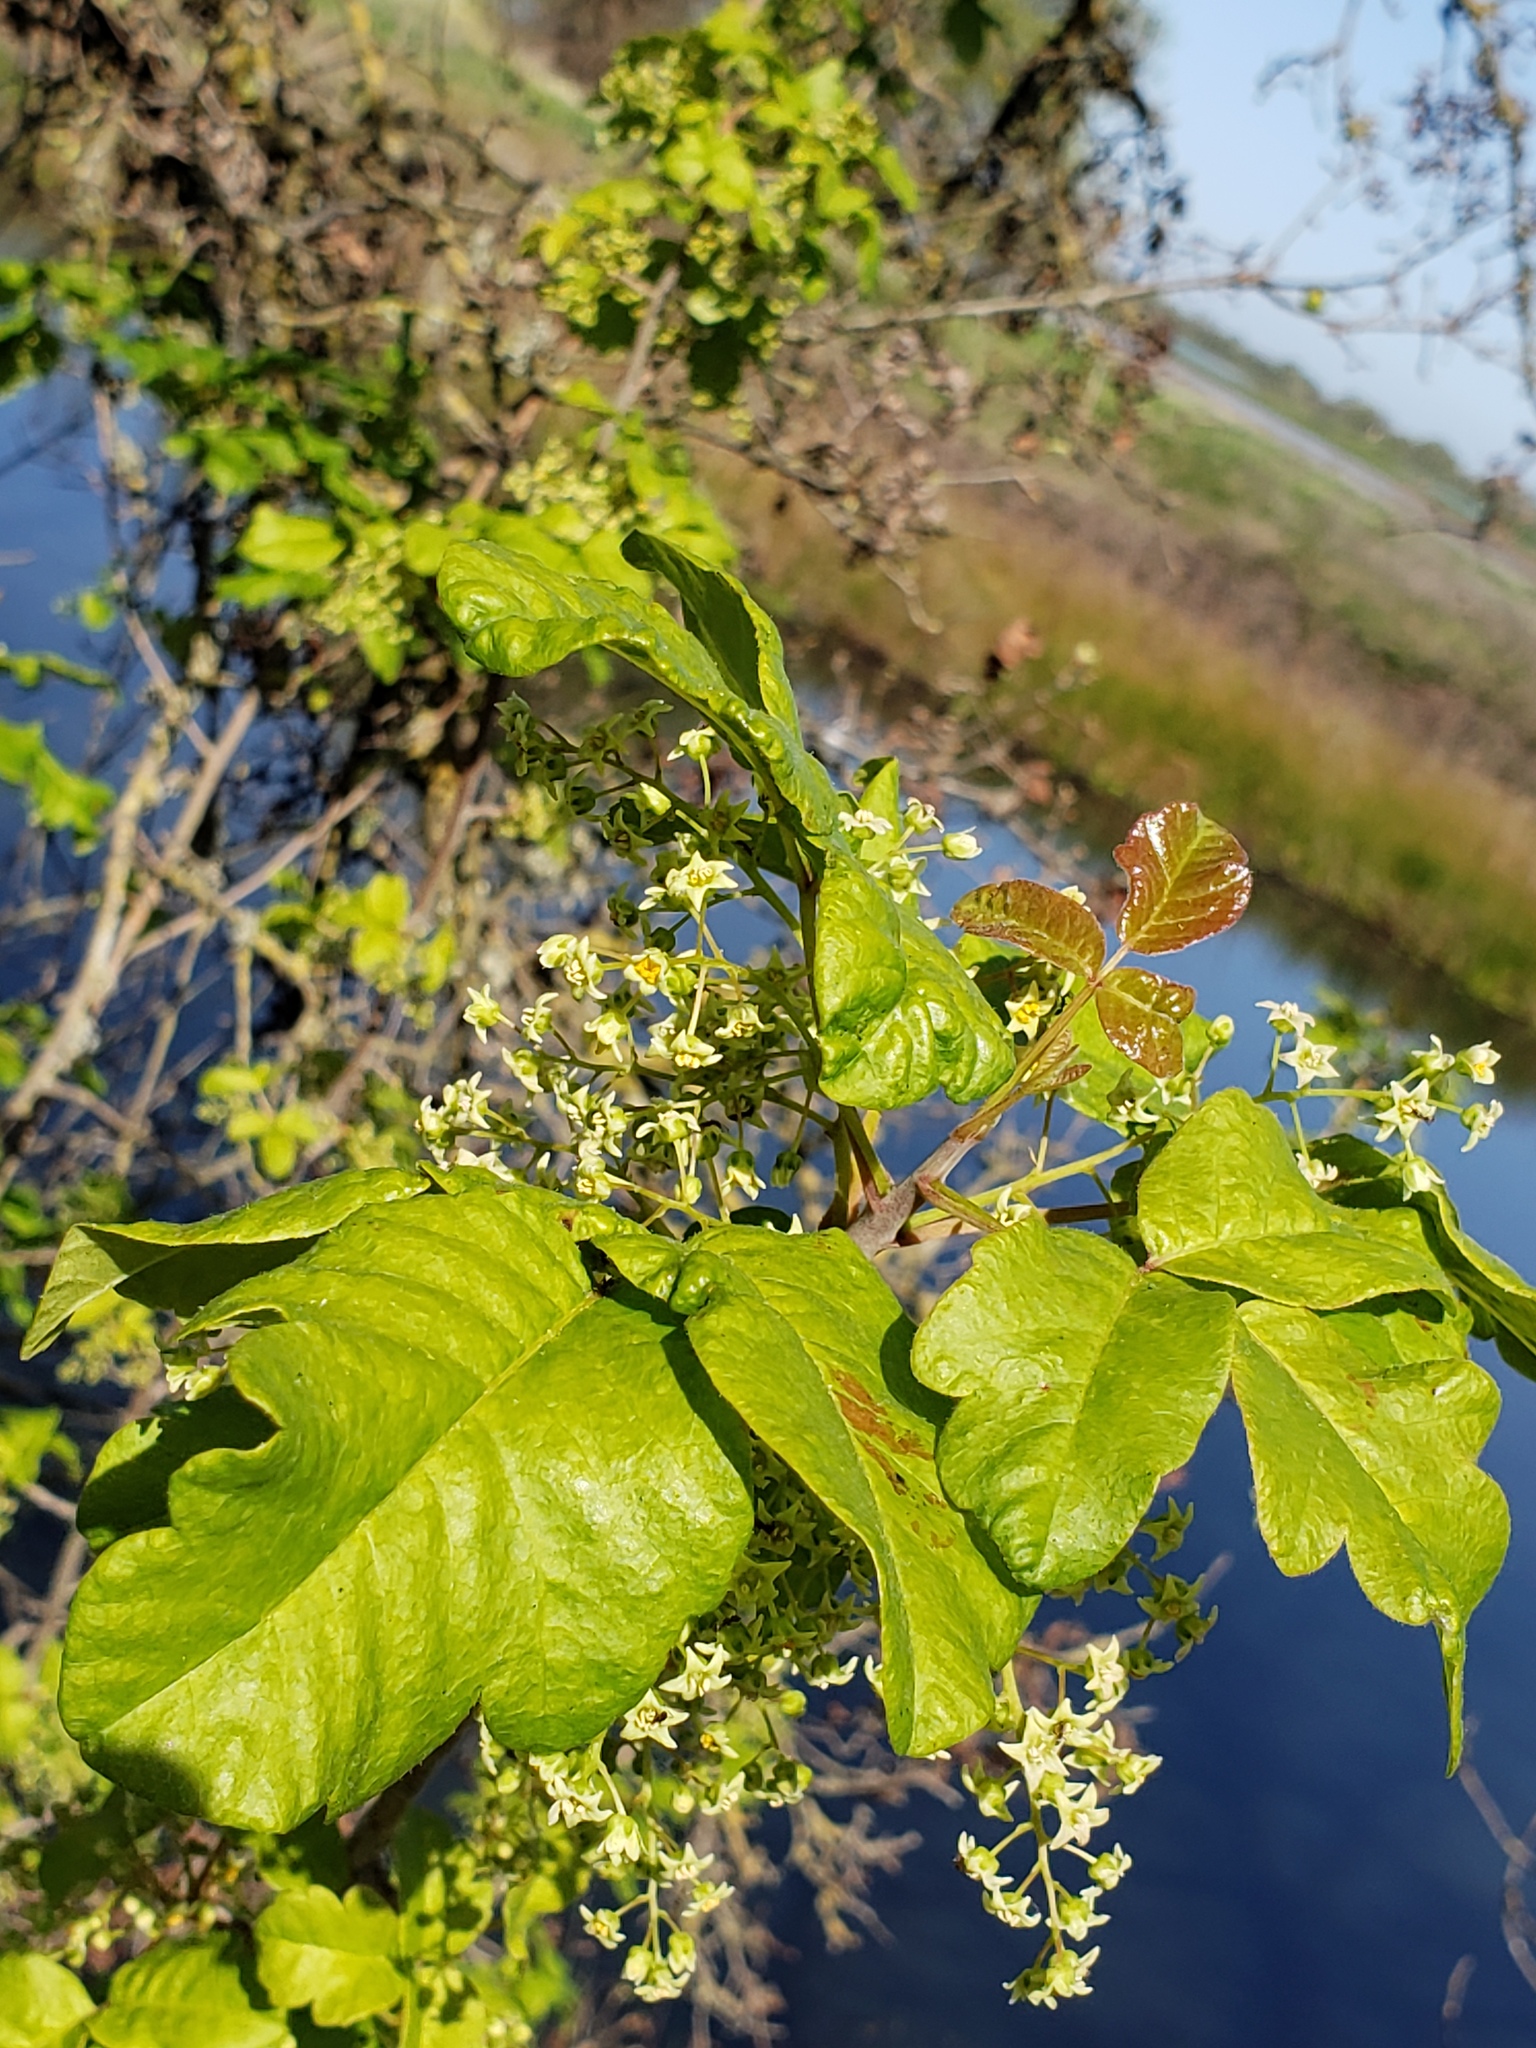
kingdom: Plantae
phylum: Tracheophyta
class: Magnoliopsida
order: Sapindales
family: Anacardiaceae
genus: Toxicodendron
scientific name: Toxicodendron diversilobum
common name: Pacific poison-oak
